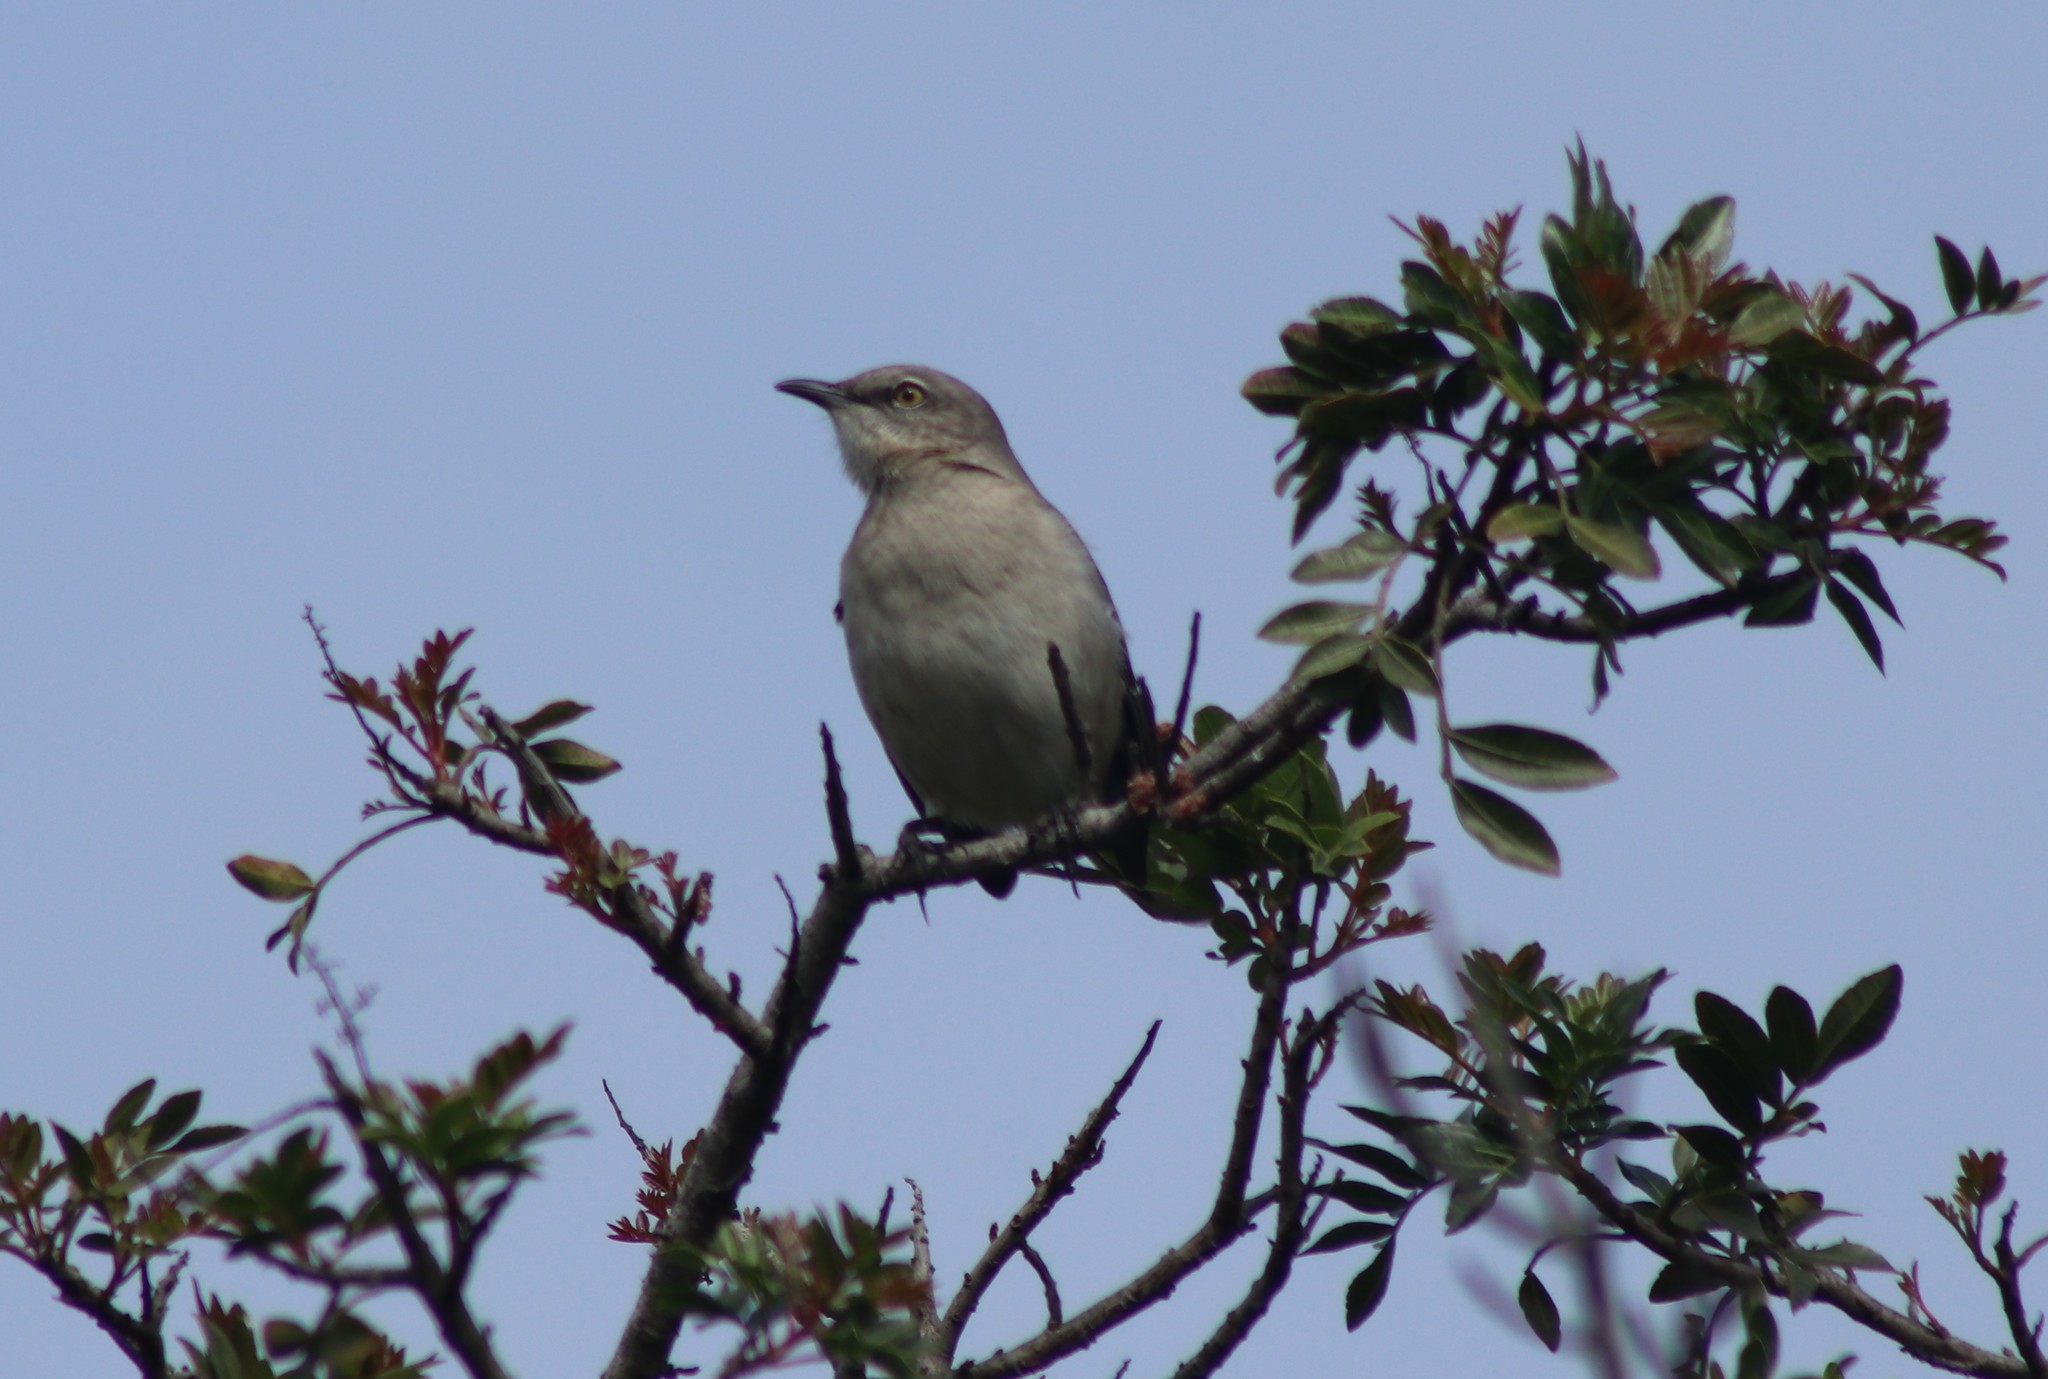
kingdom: Animalia
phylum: Chordata
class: Aves
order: Passeriformes
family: Mimidae
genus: Mimus
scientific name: Mimus polyglottos
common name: Northern mockingbird
